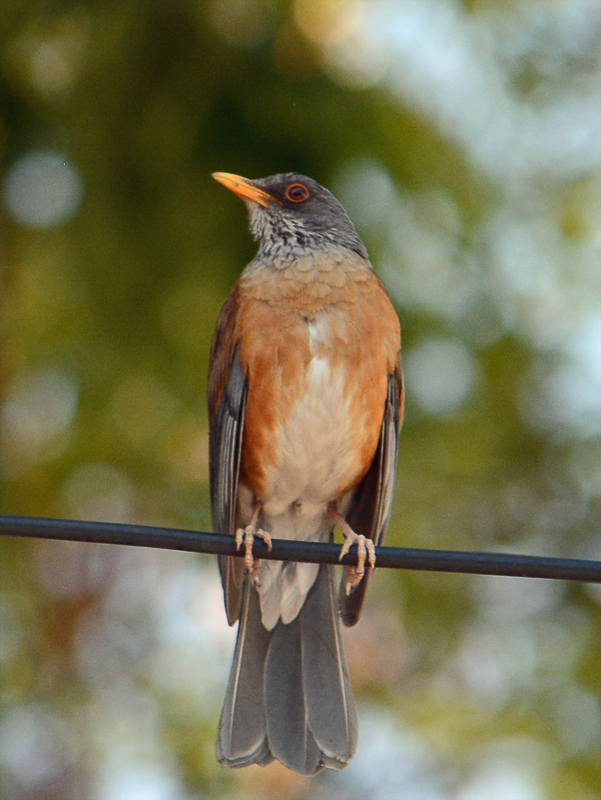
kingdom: Animalia
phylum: Chordata
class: Aves
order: Passeriformes
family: Turdidae
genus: Turdus
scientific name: Turdus rufopalliatus
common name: Rufous-backed robin
